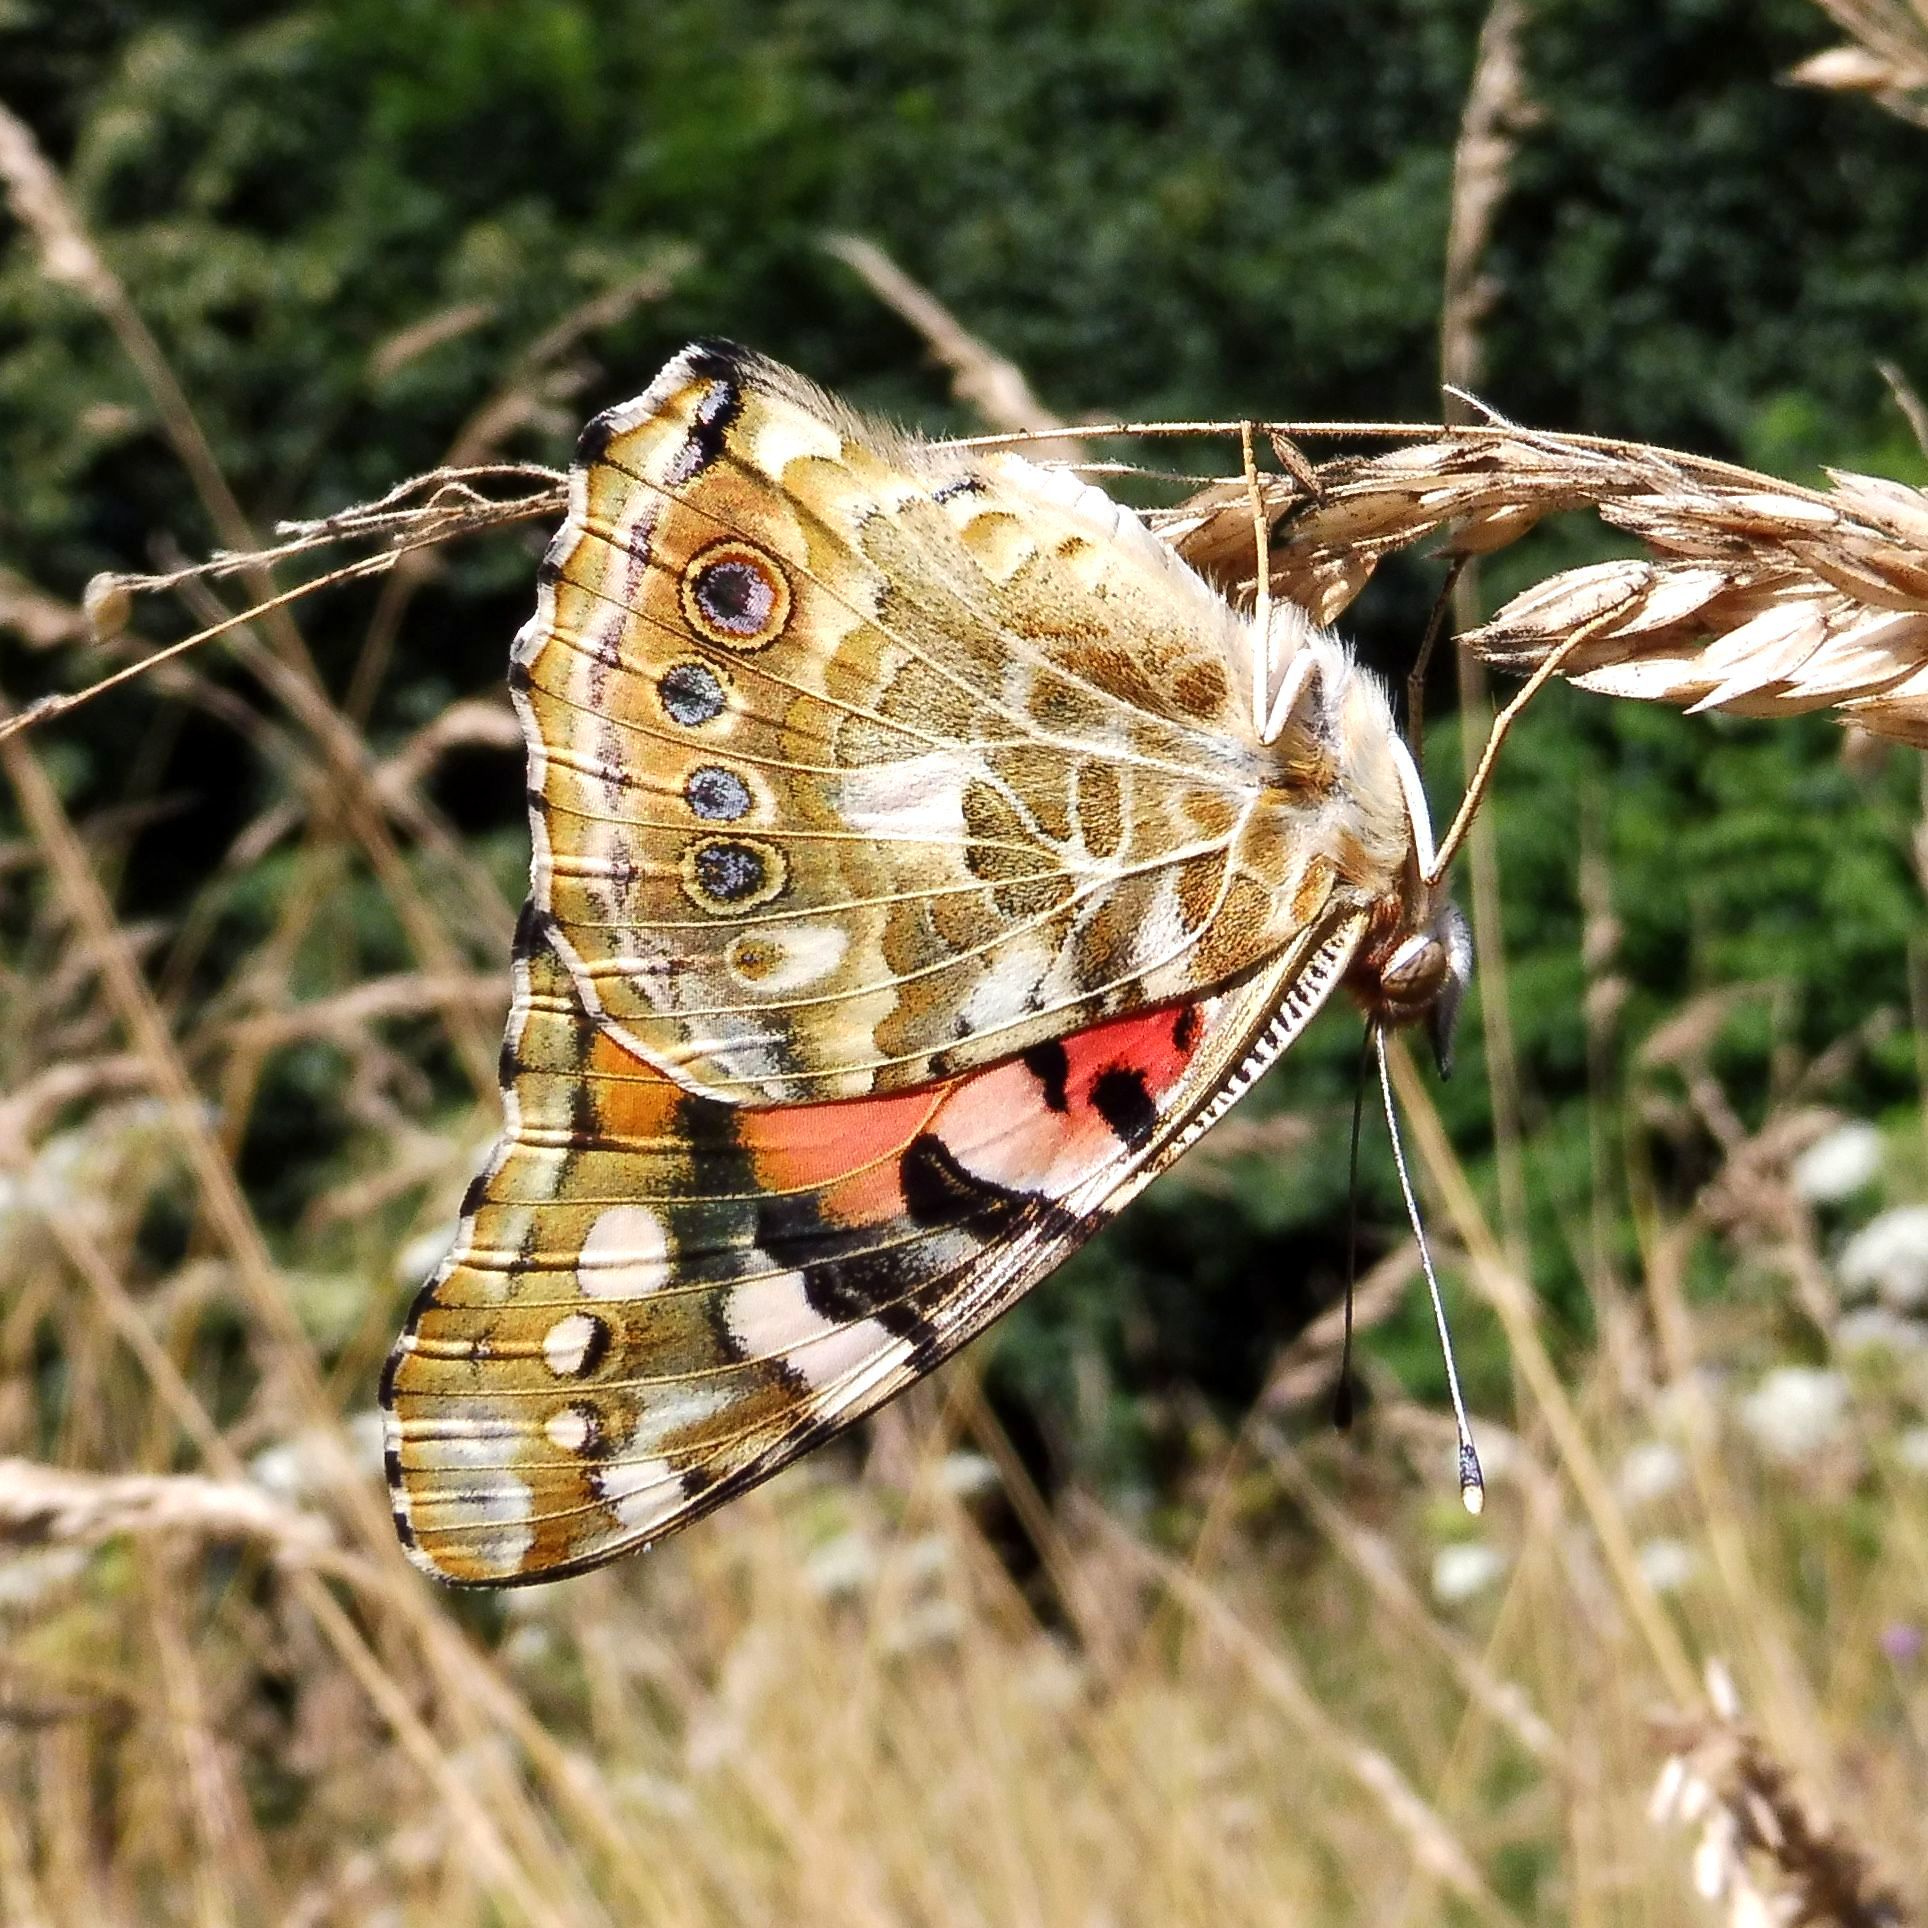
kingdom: Animalia
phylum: Arthropoda
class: Insecta
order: Lepidoptera
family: Nymphalidae
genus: Vanessa
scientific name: Vanessa cardui
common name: Painted lady
